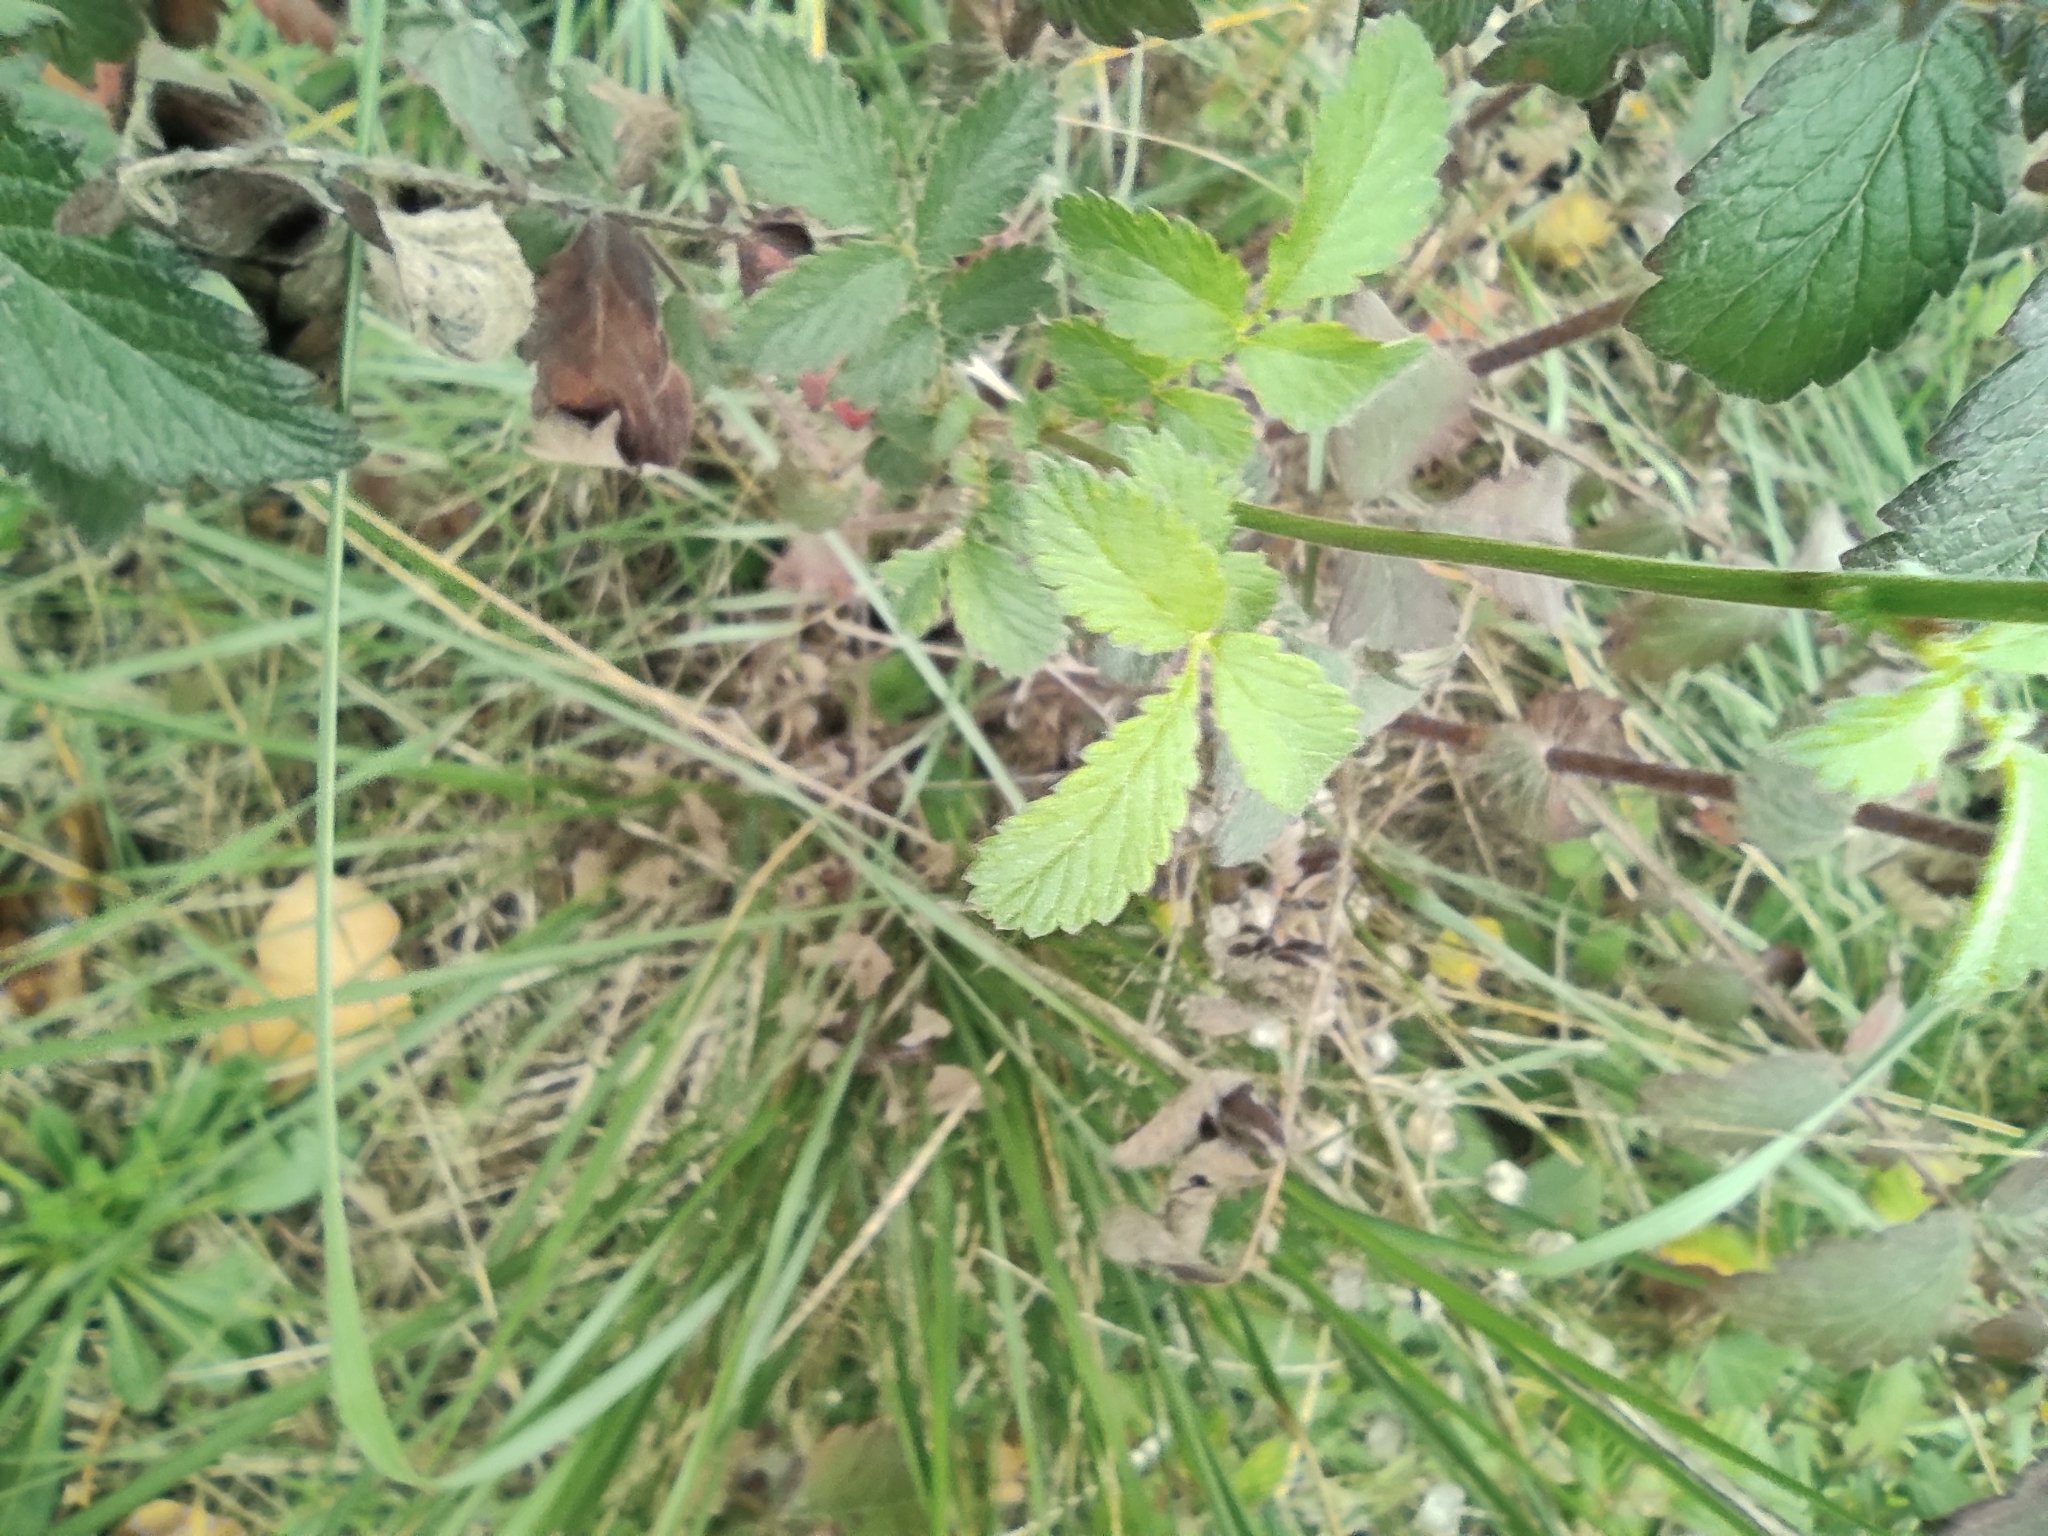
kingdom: Plantae
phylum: Tracheophyta
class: Magnoliopsida
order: Rosales
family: Rosaceae
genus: Agrimonia
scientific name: Agrimonia eupatoria
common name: Agrimony
